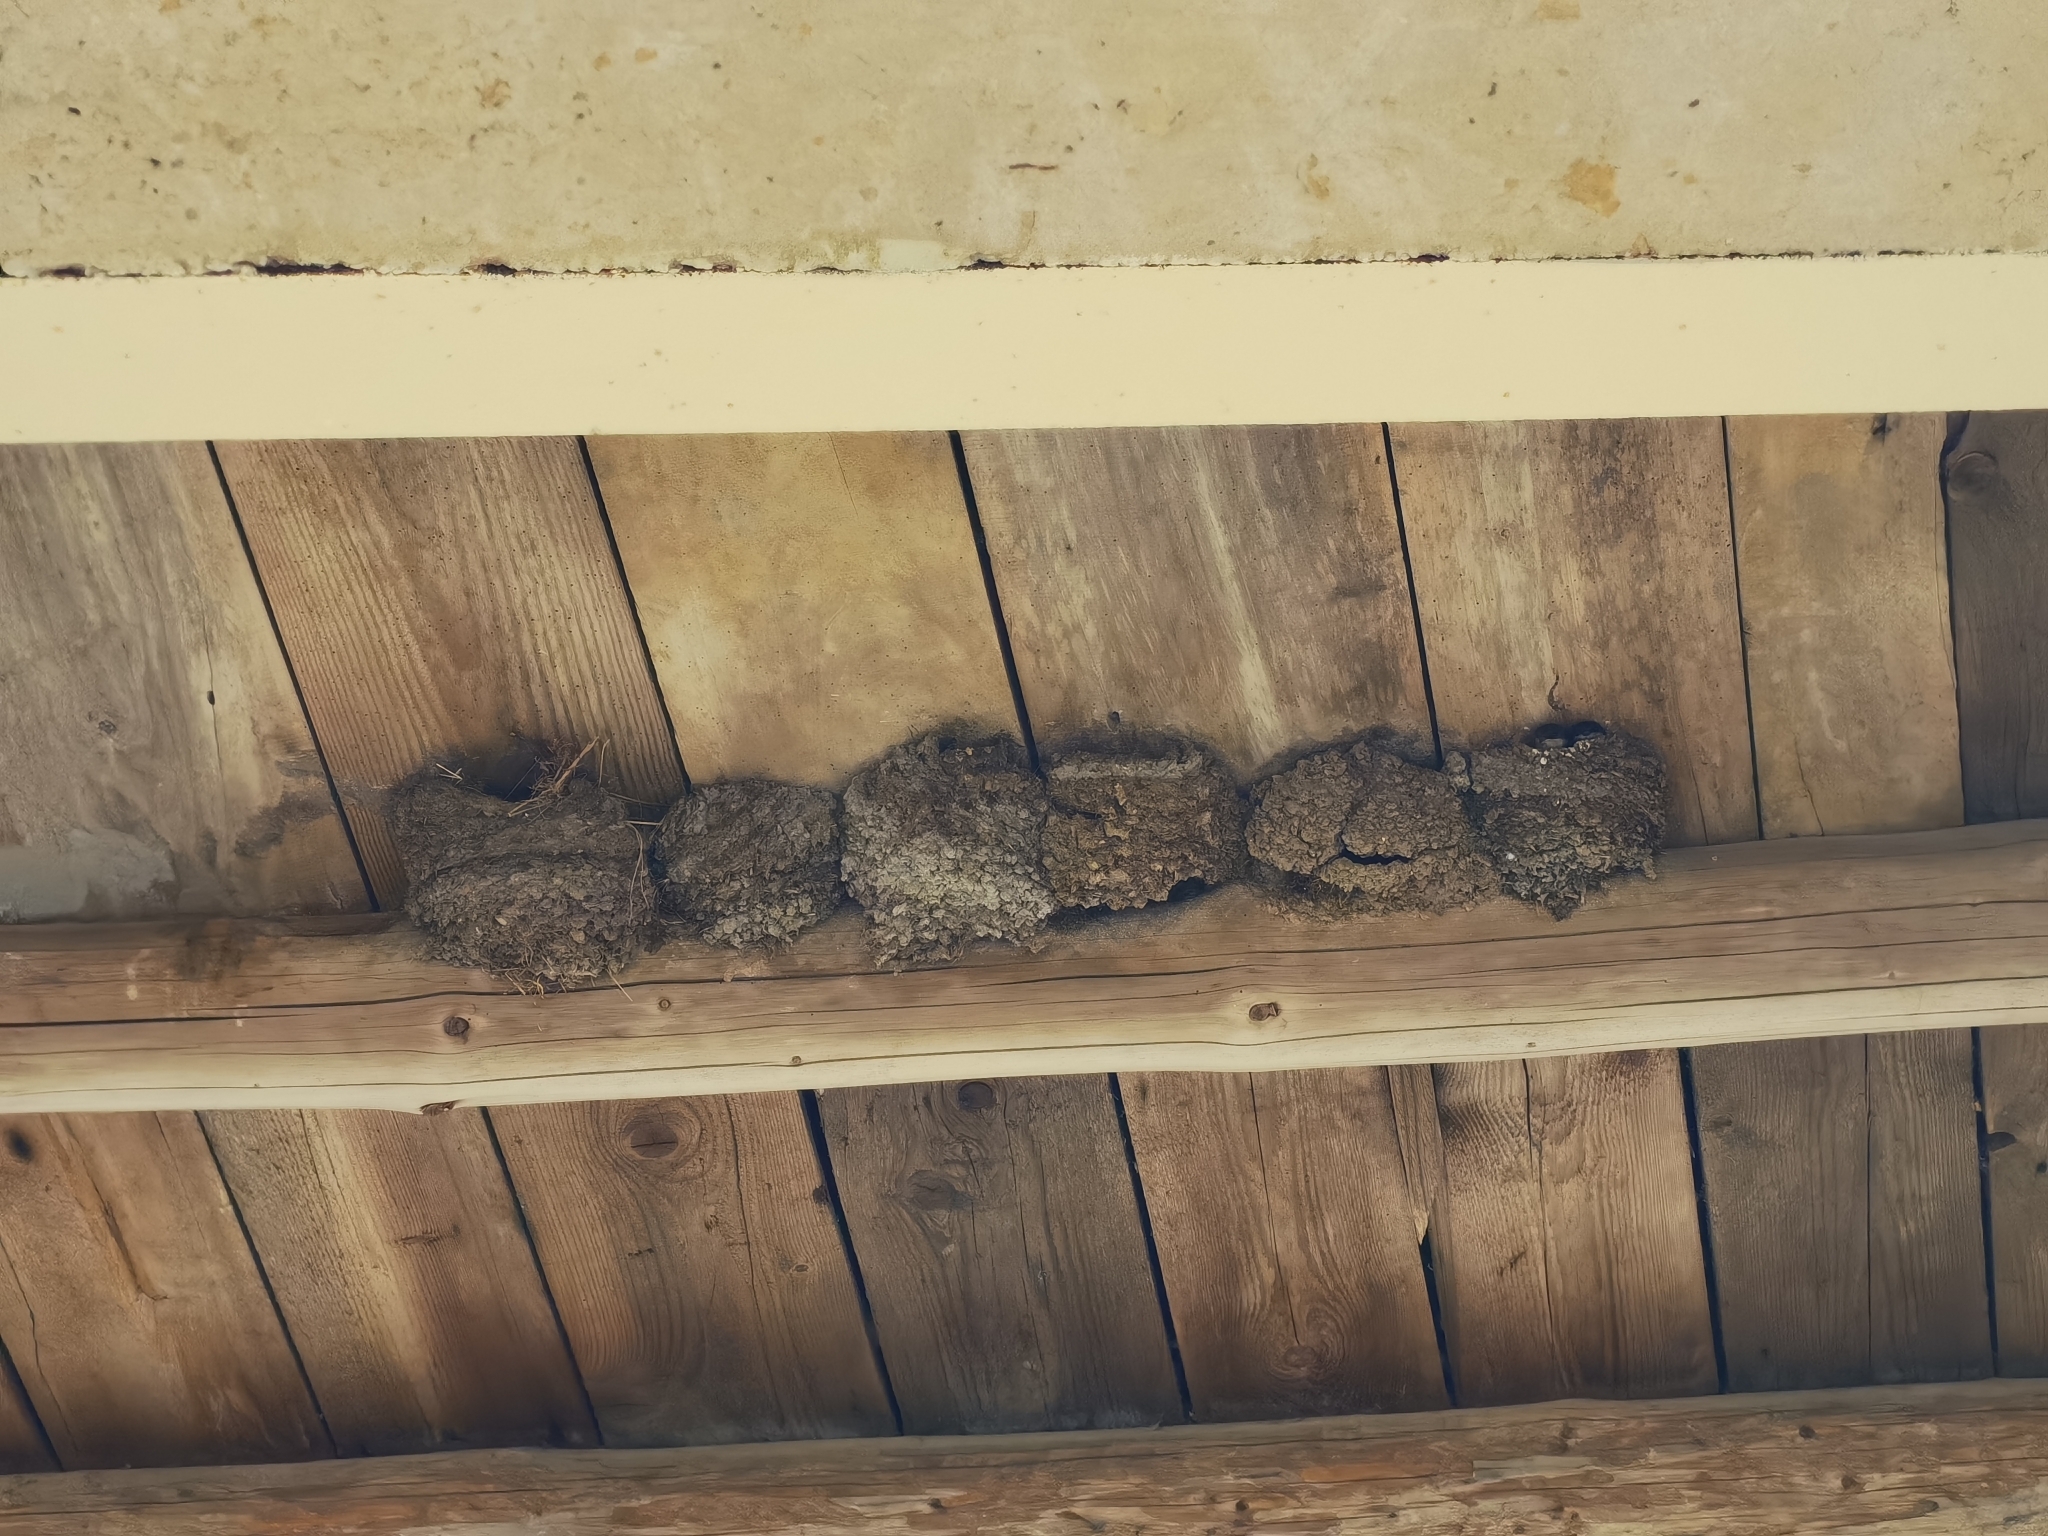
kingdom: Animalia
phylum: Chordata
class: Aves
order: Passeriformes
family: Hirundinidae
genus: Delichon
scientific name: Delichon urbicum
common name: Common house martin
